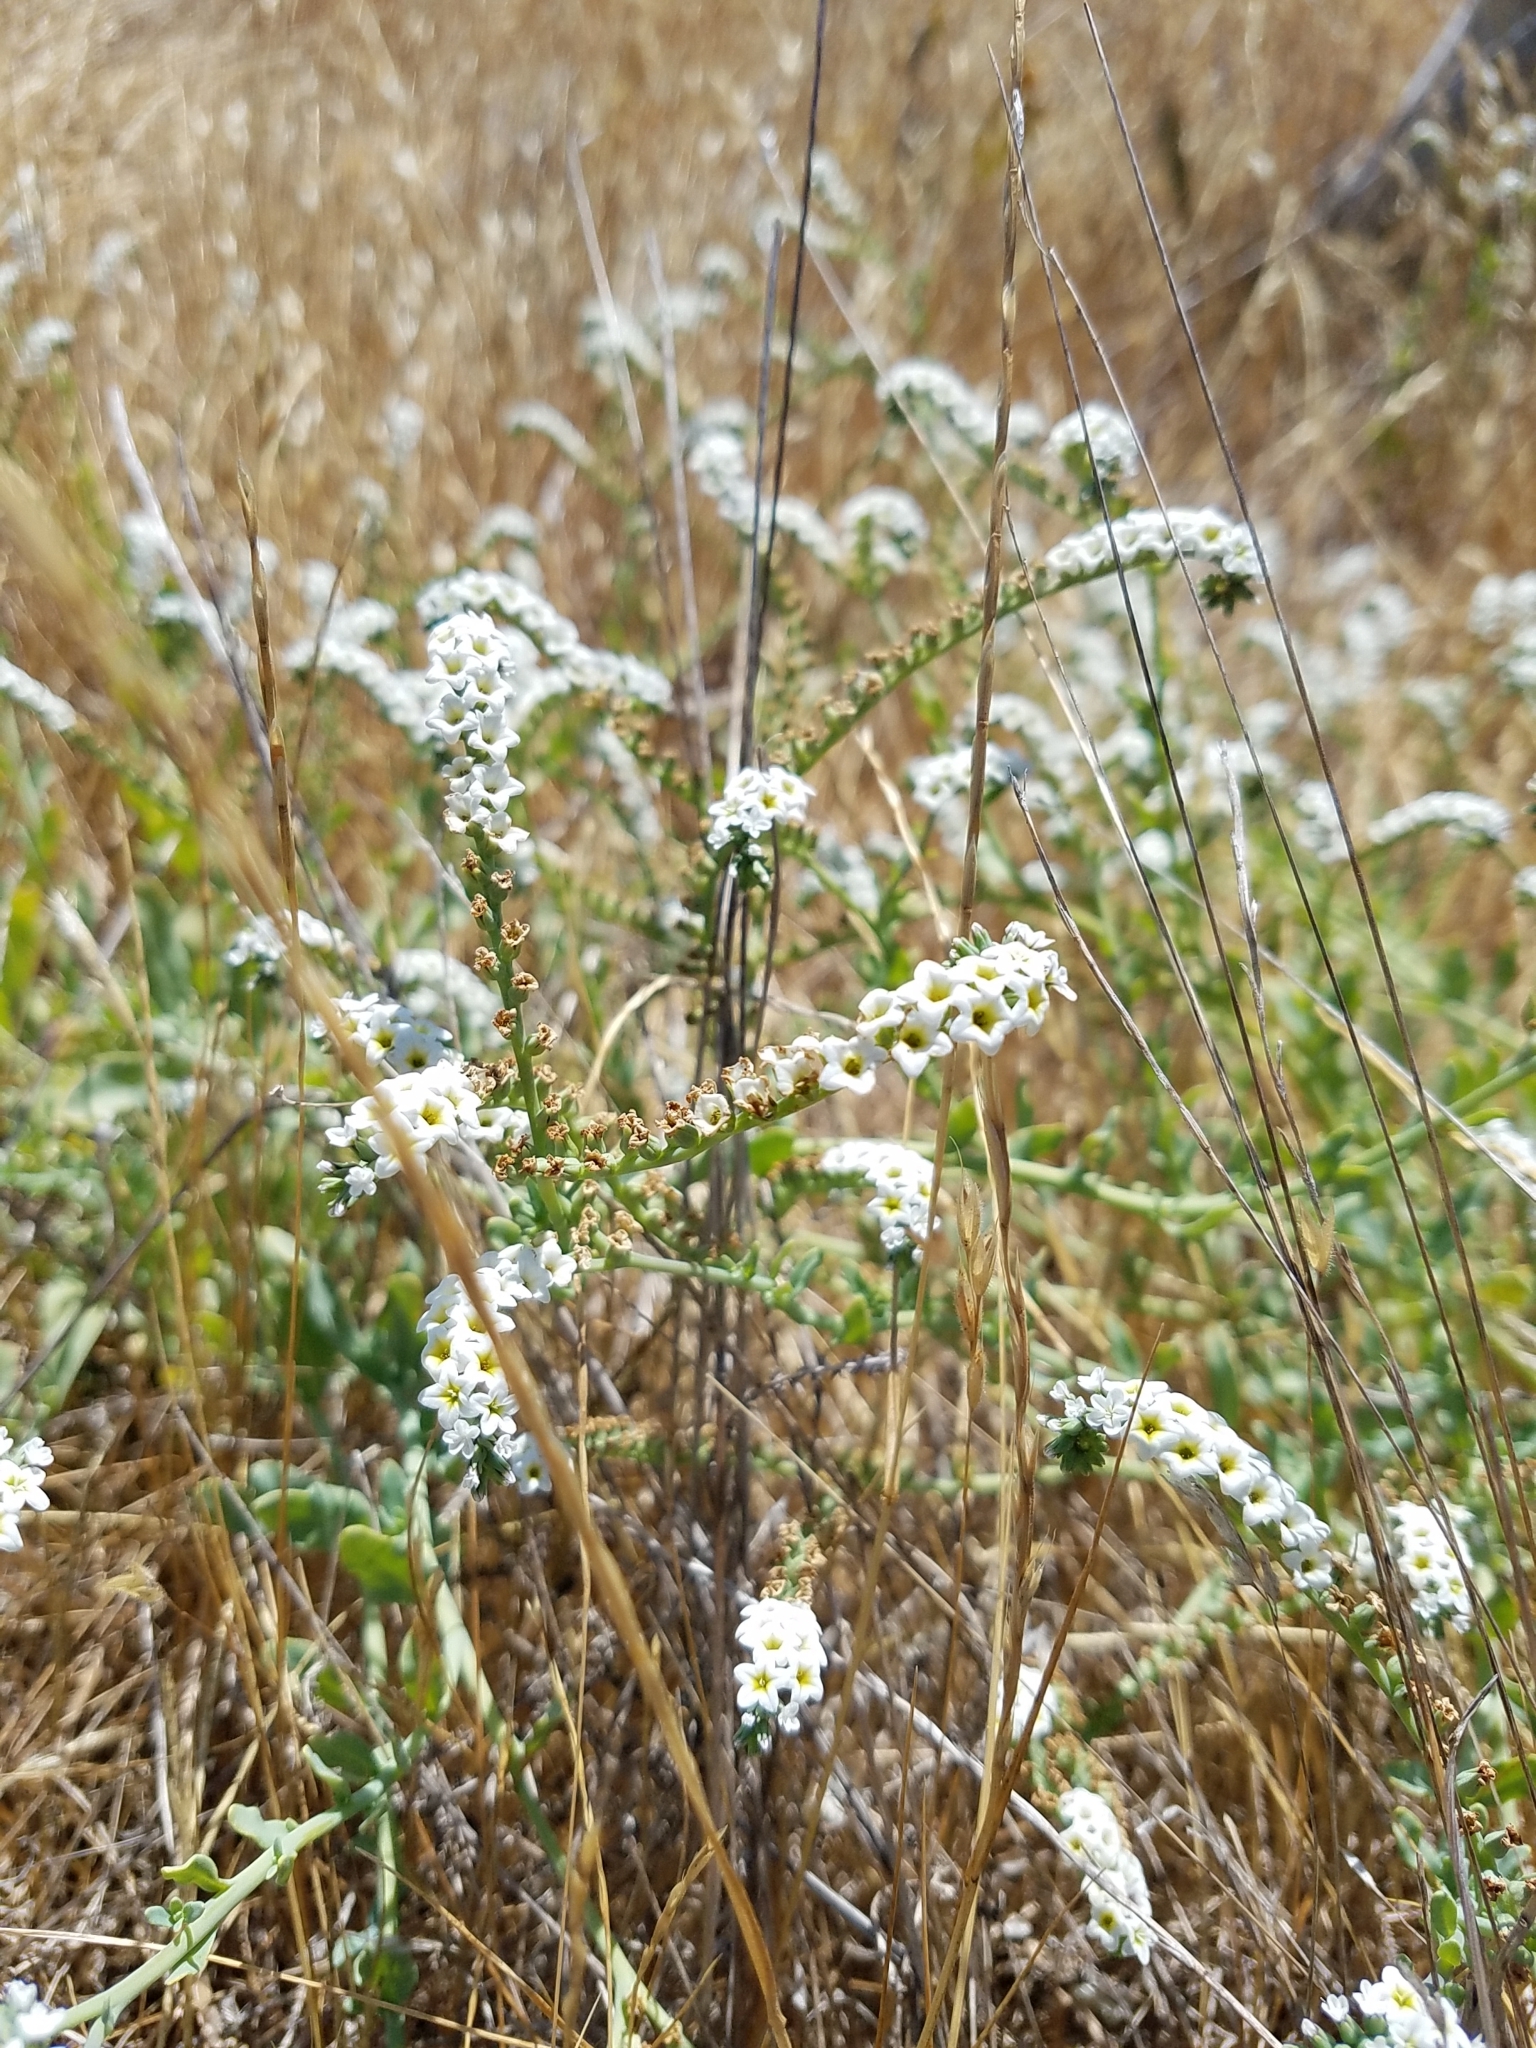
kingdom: Plantae
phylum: Tracheophyta
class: Magnoliopsida
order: Boraginales
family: Heliotropiaceae
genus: Heliotropium
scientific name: Heliotropium curassavicum
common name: Seaside heliotrope
